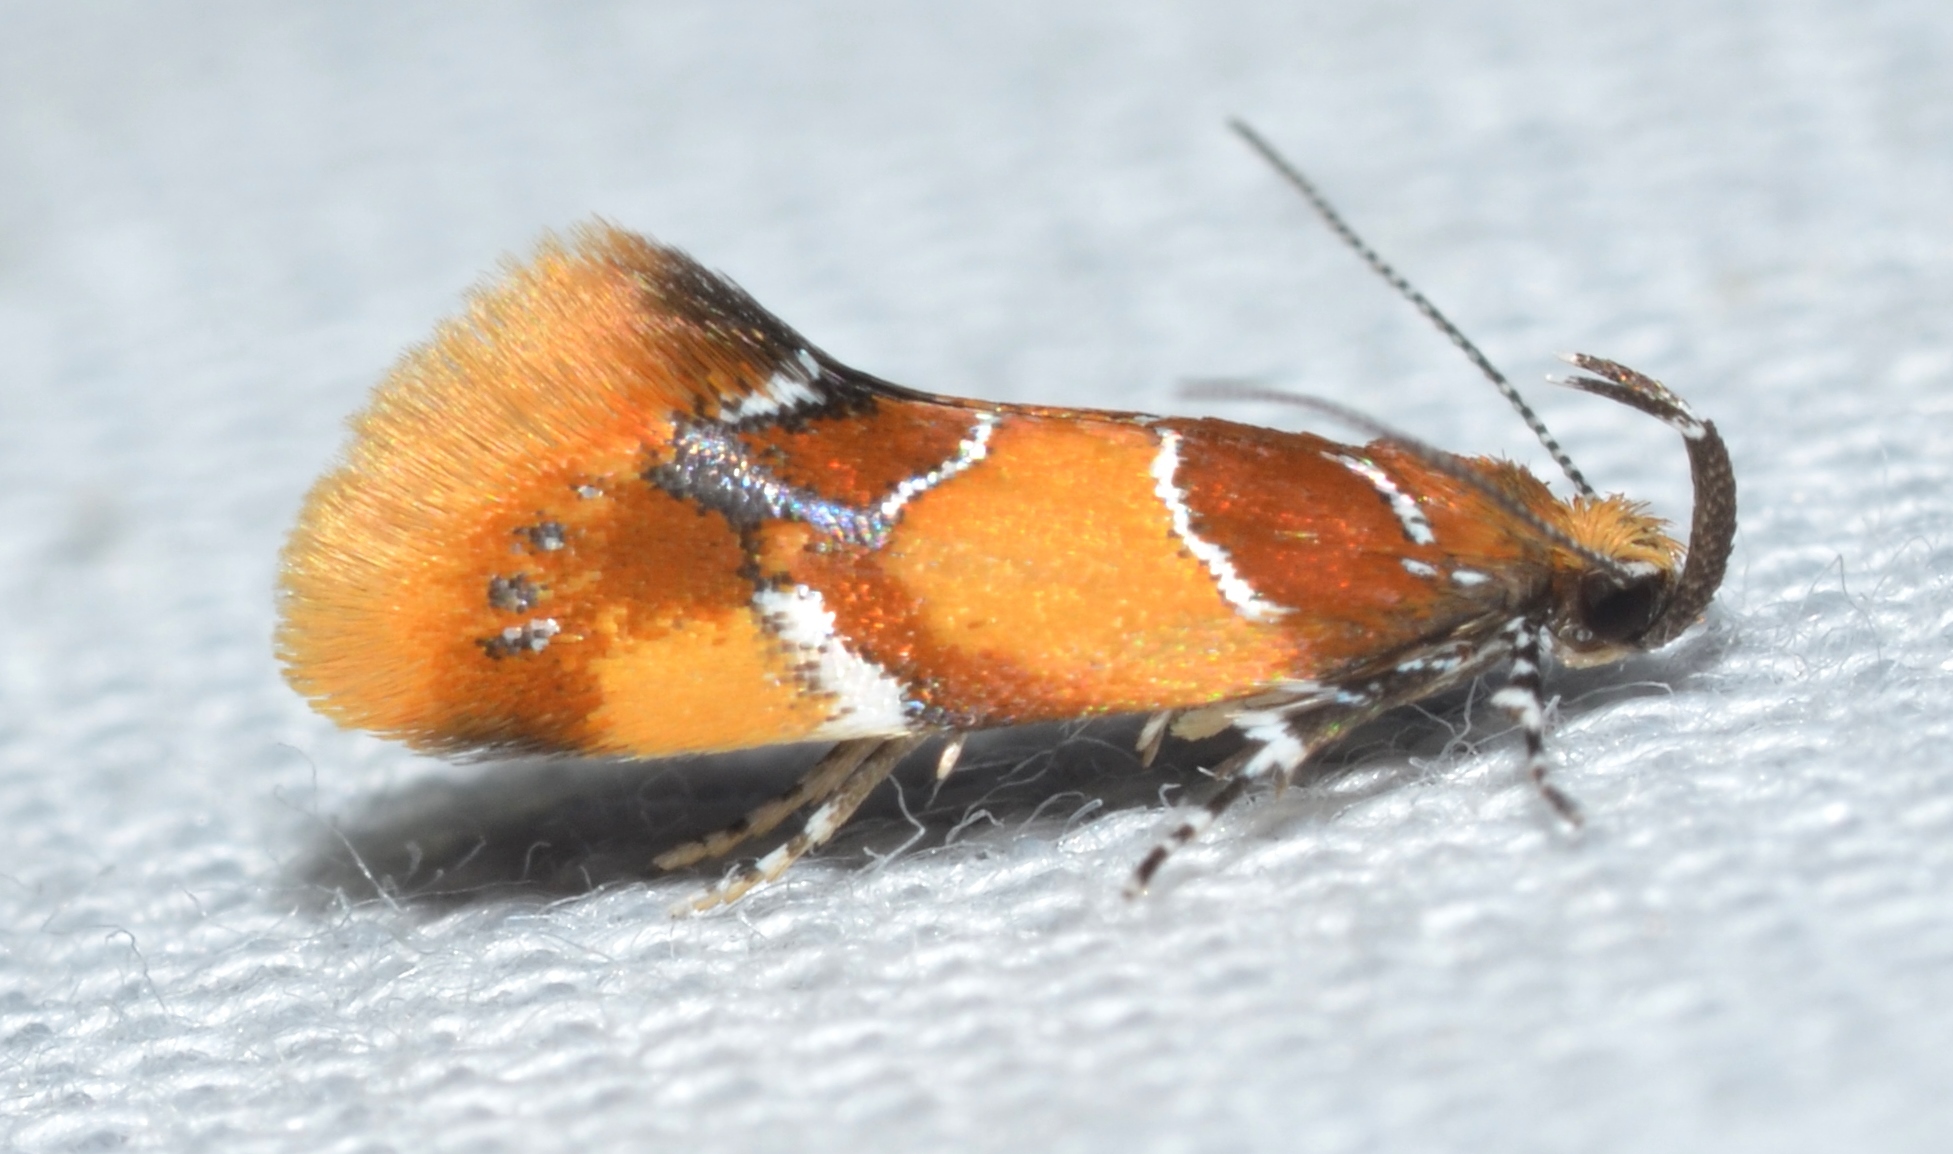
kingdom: Animalia
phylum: Arthropoda
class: Insecta
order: Lepidoptera
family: Oecophoridae
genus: Callima
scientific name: Callima argenticinctella
